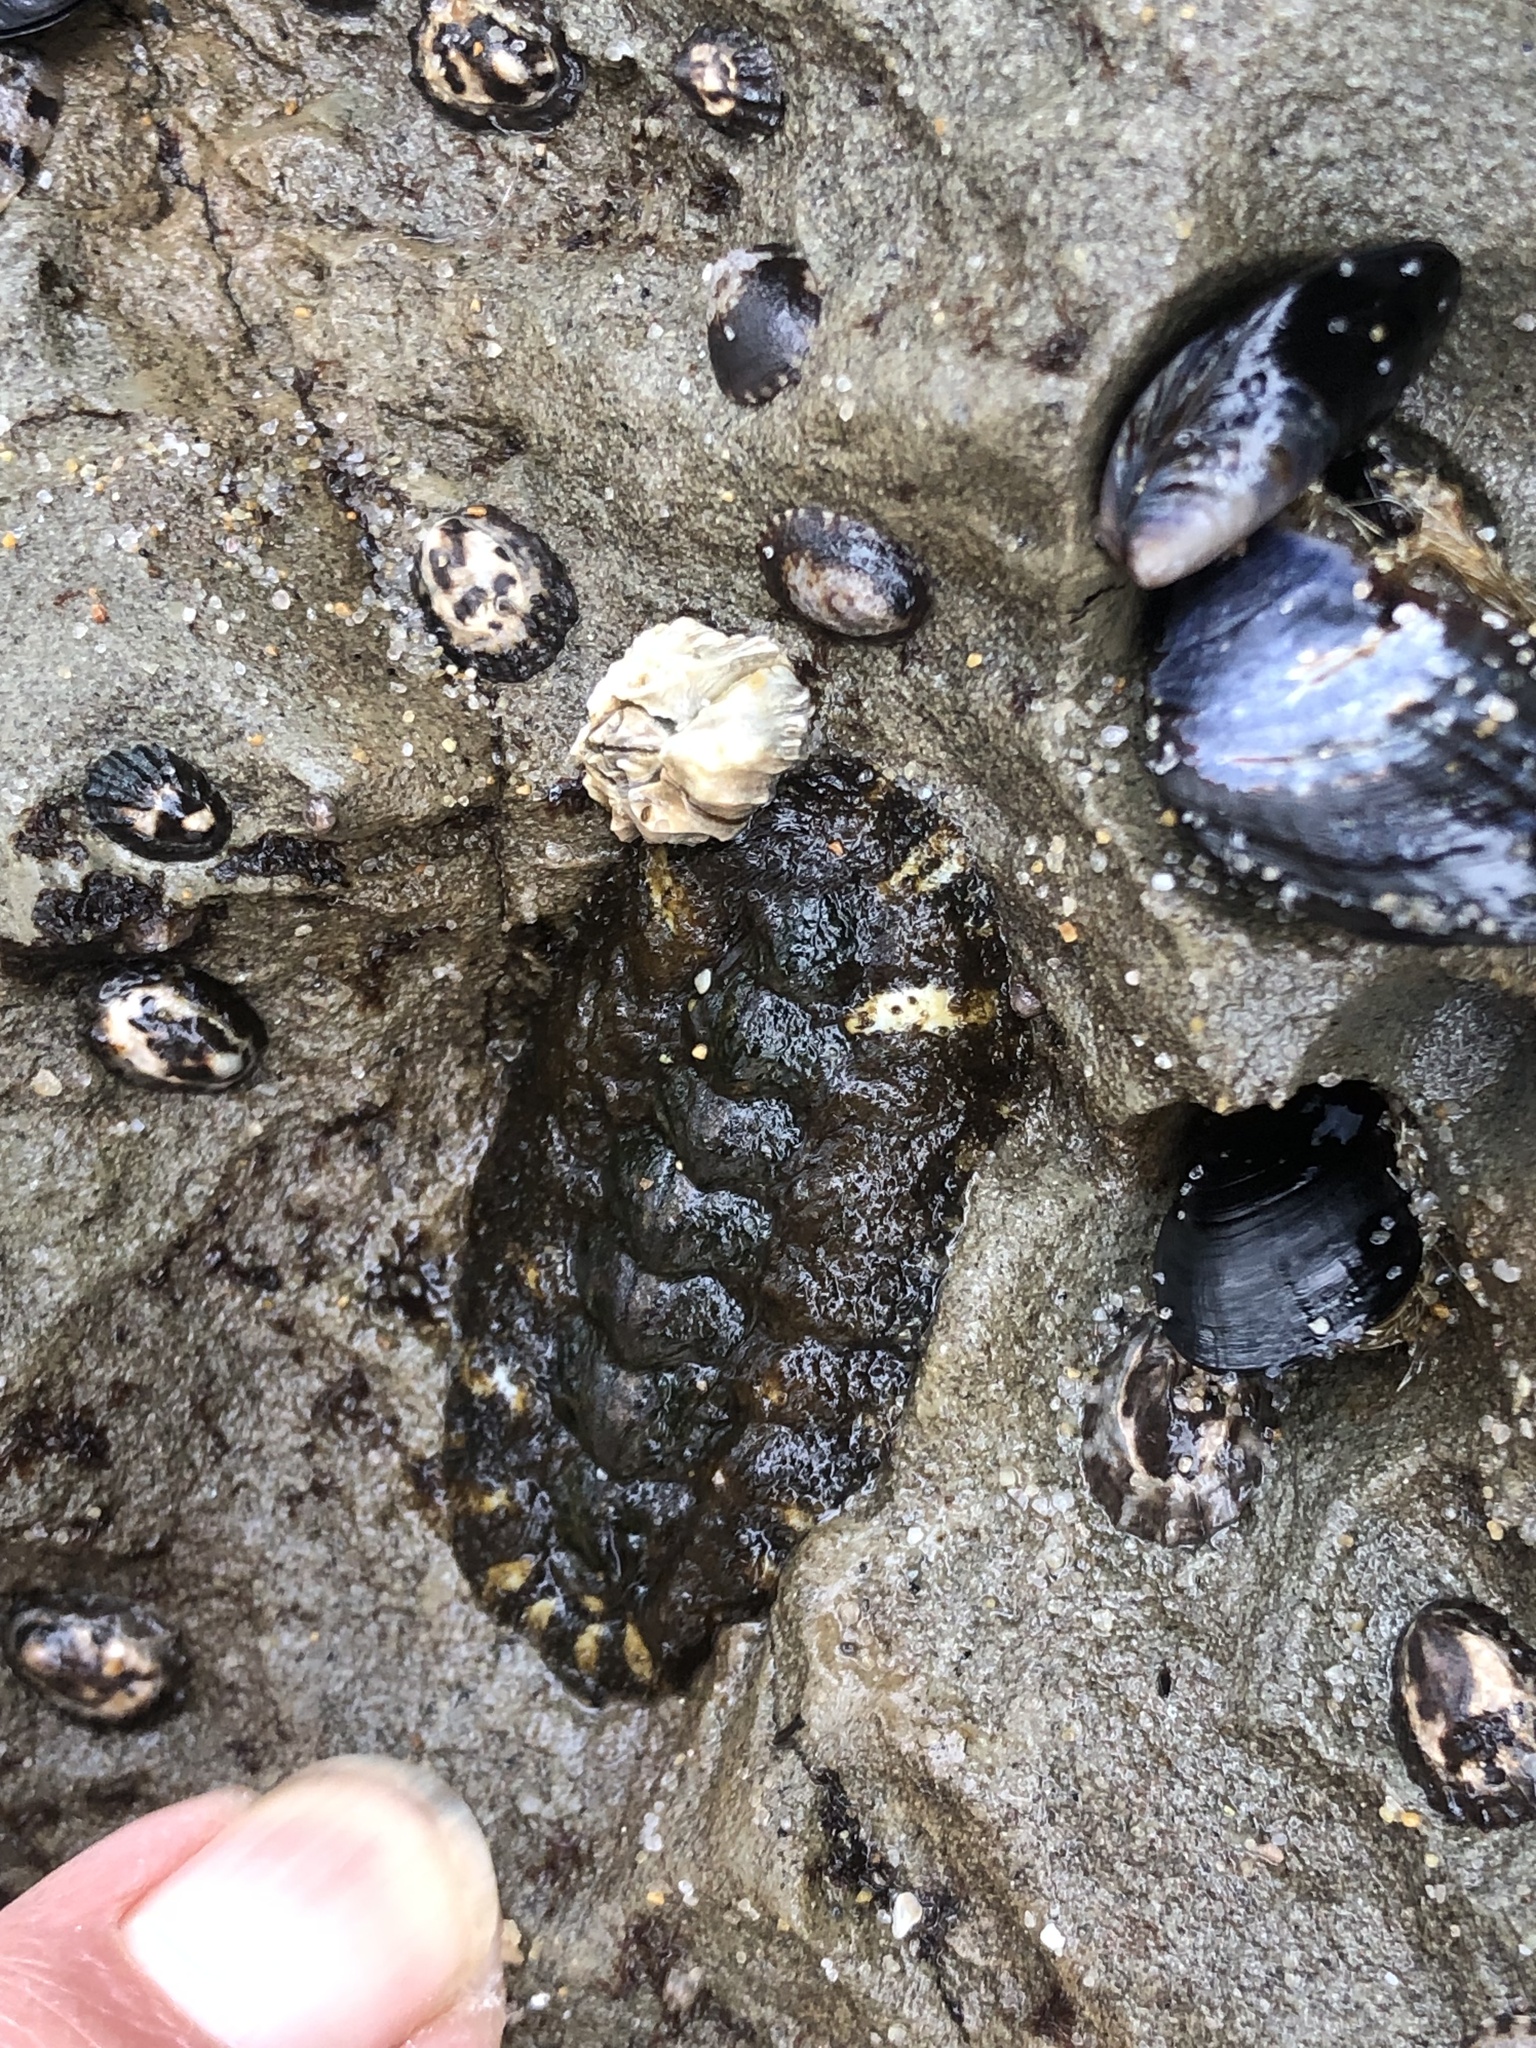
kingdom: Animalia
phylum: Mollusca
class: Polyplacophora
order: Chitonida
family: Tonicellidae
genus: Nuttallina
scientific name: Nuttallina californica
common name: California nuttall chiton
